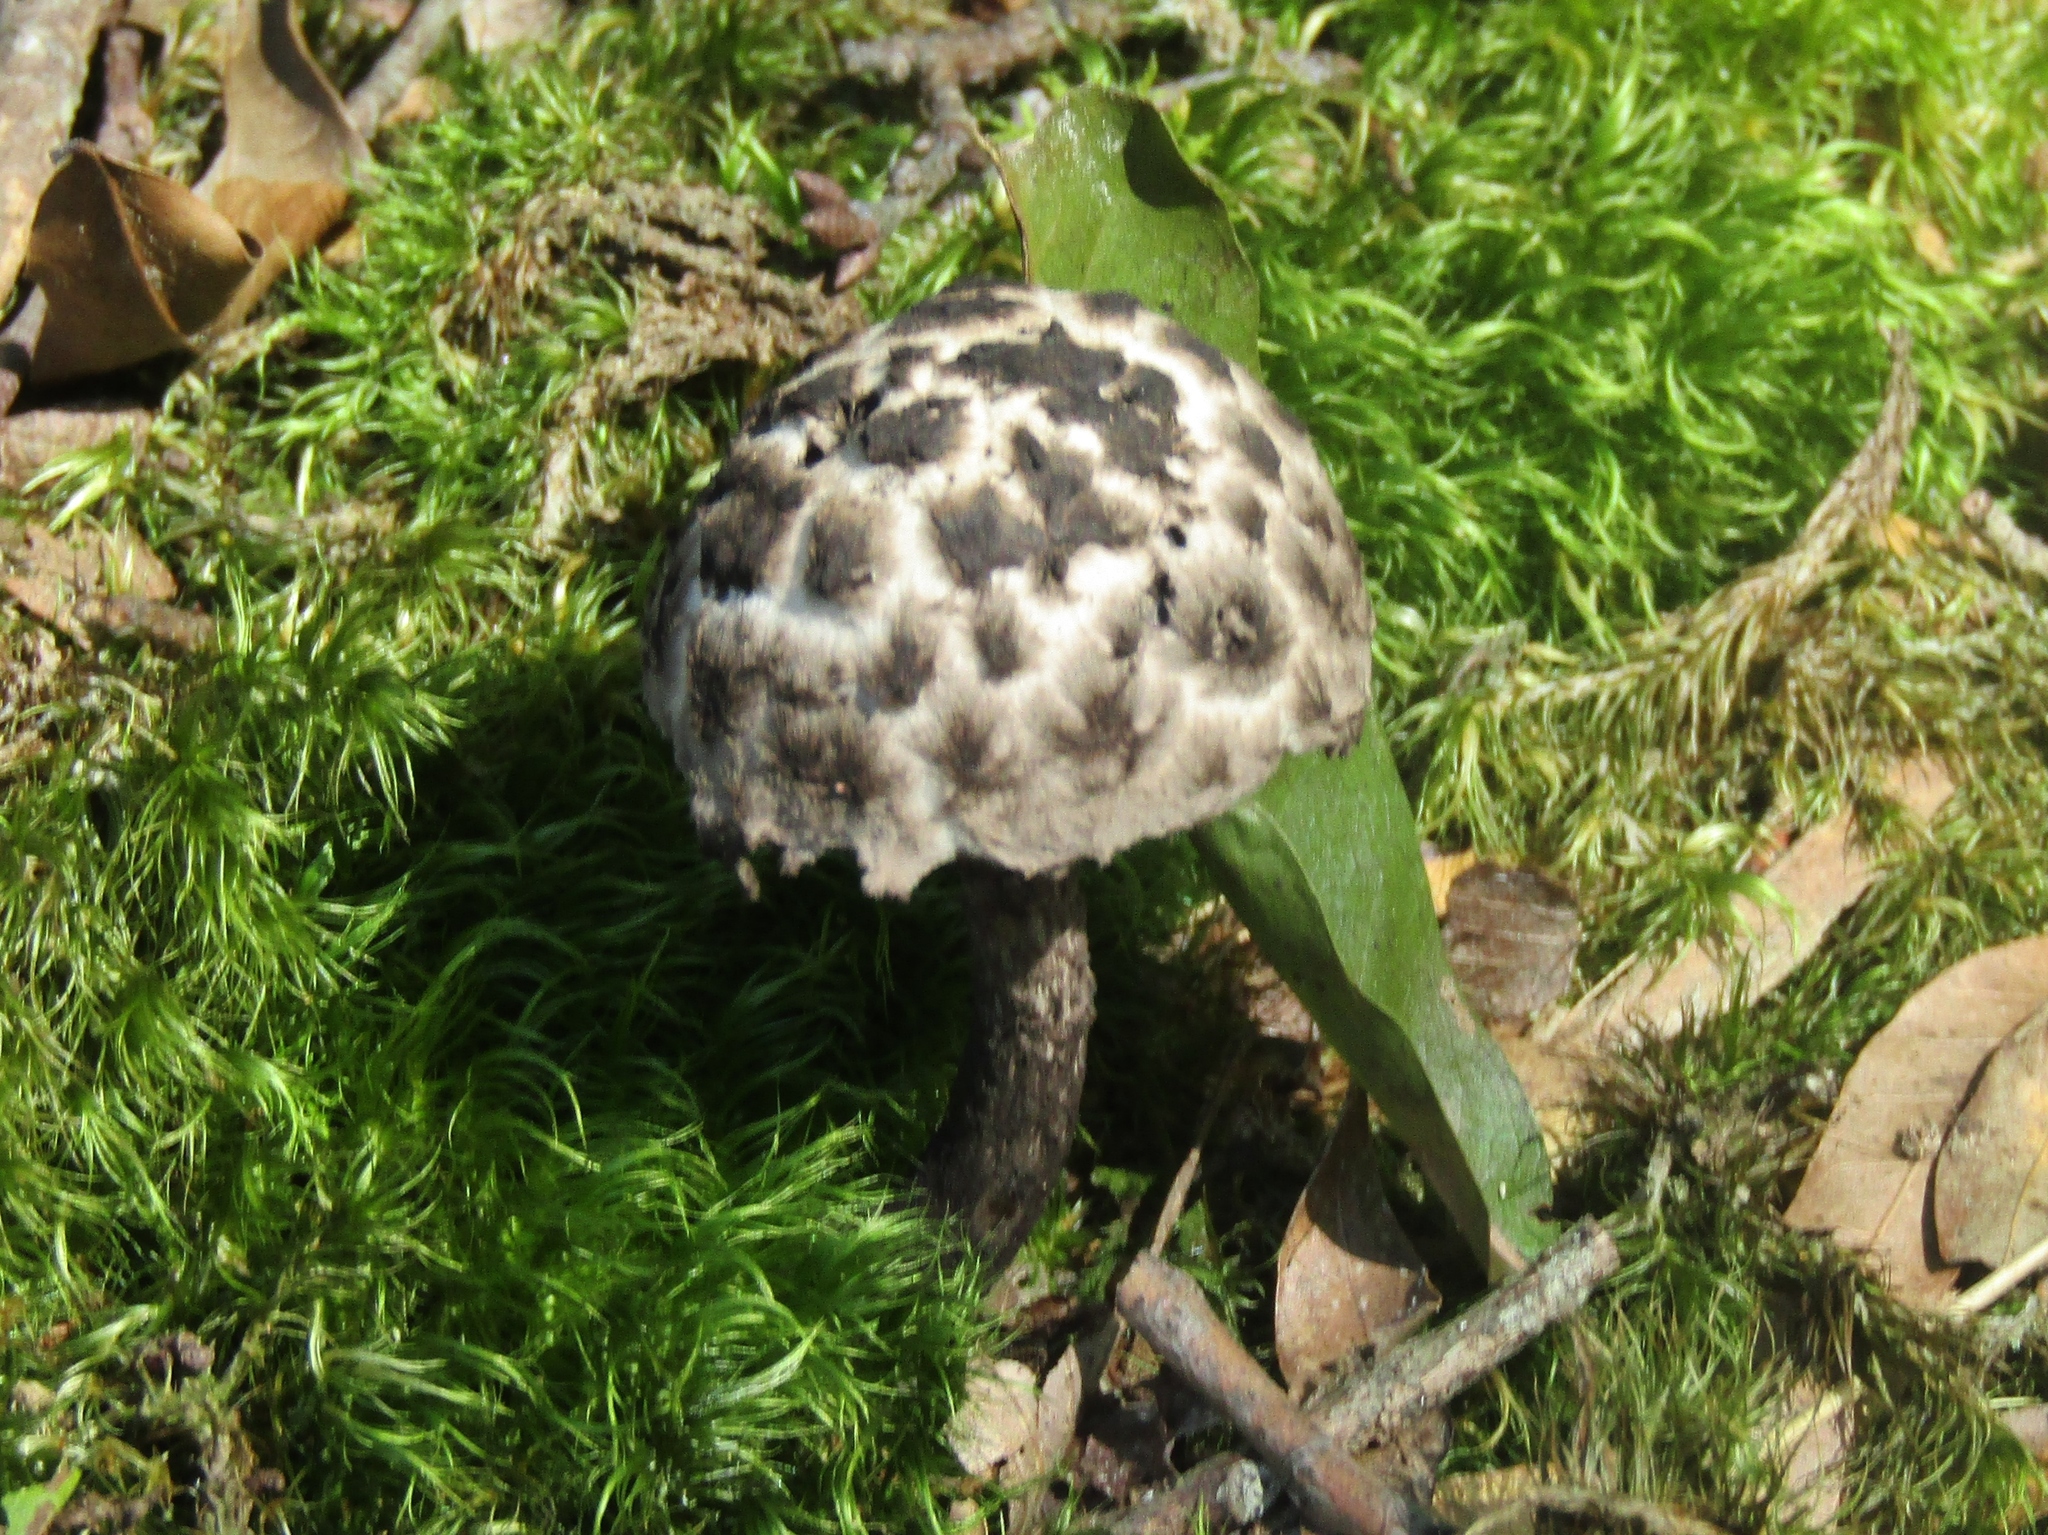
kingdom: Fungi
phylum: Basidiomycota
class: Agaricomycetes
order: Boletales
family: Boletaceae
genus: Strobilomyces
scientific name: Strobilomyces strobilaceus
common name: Old man of the woods
